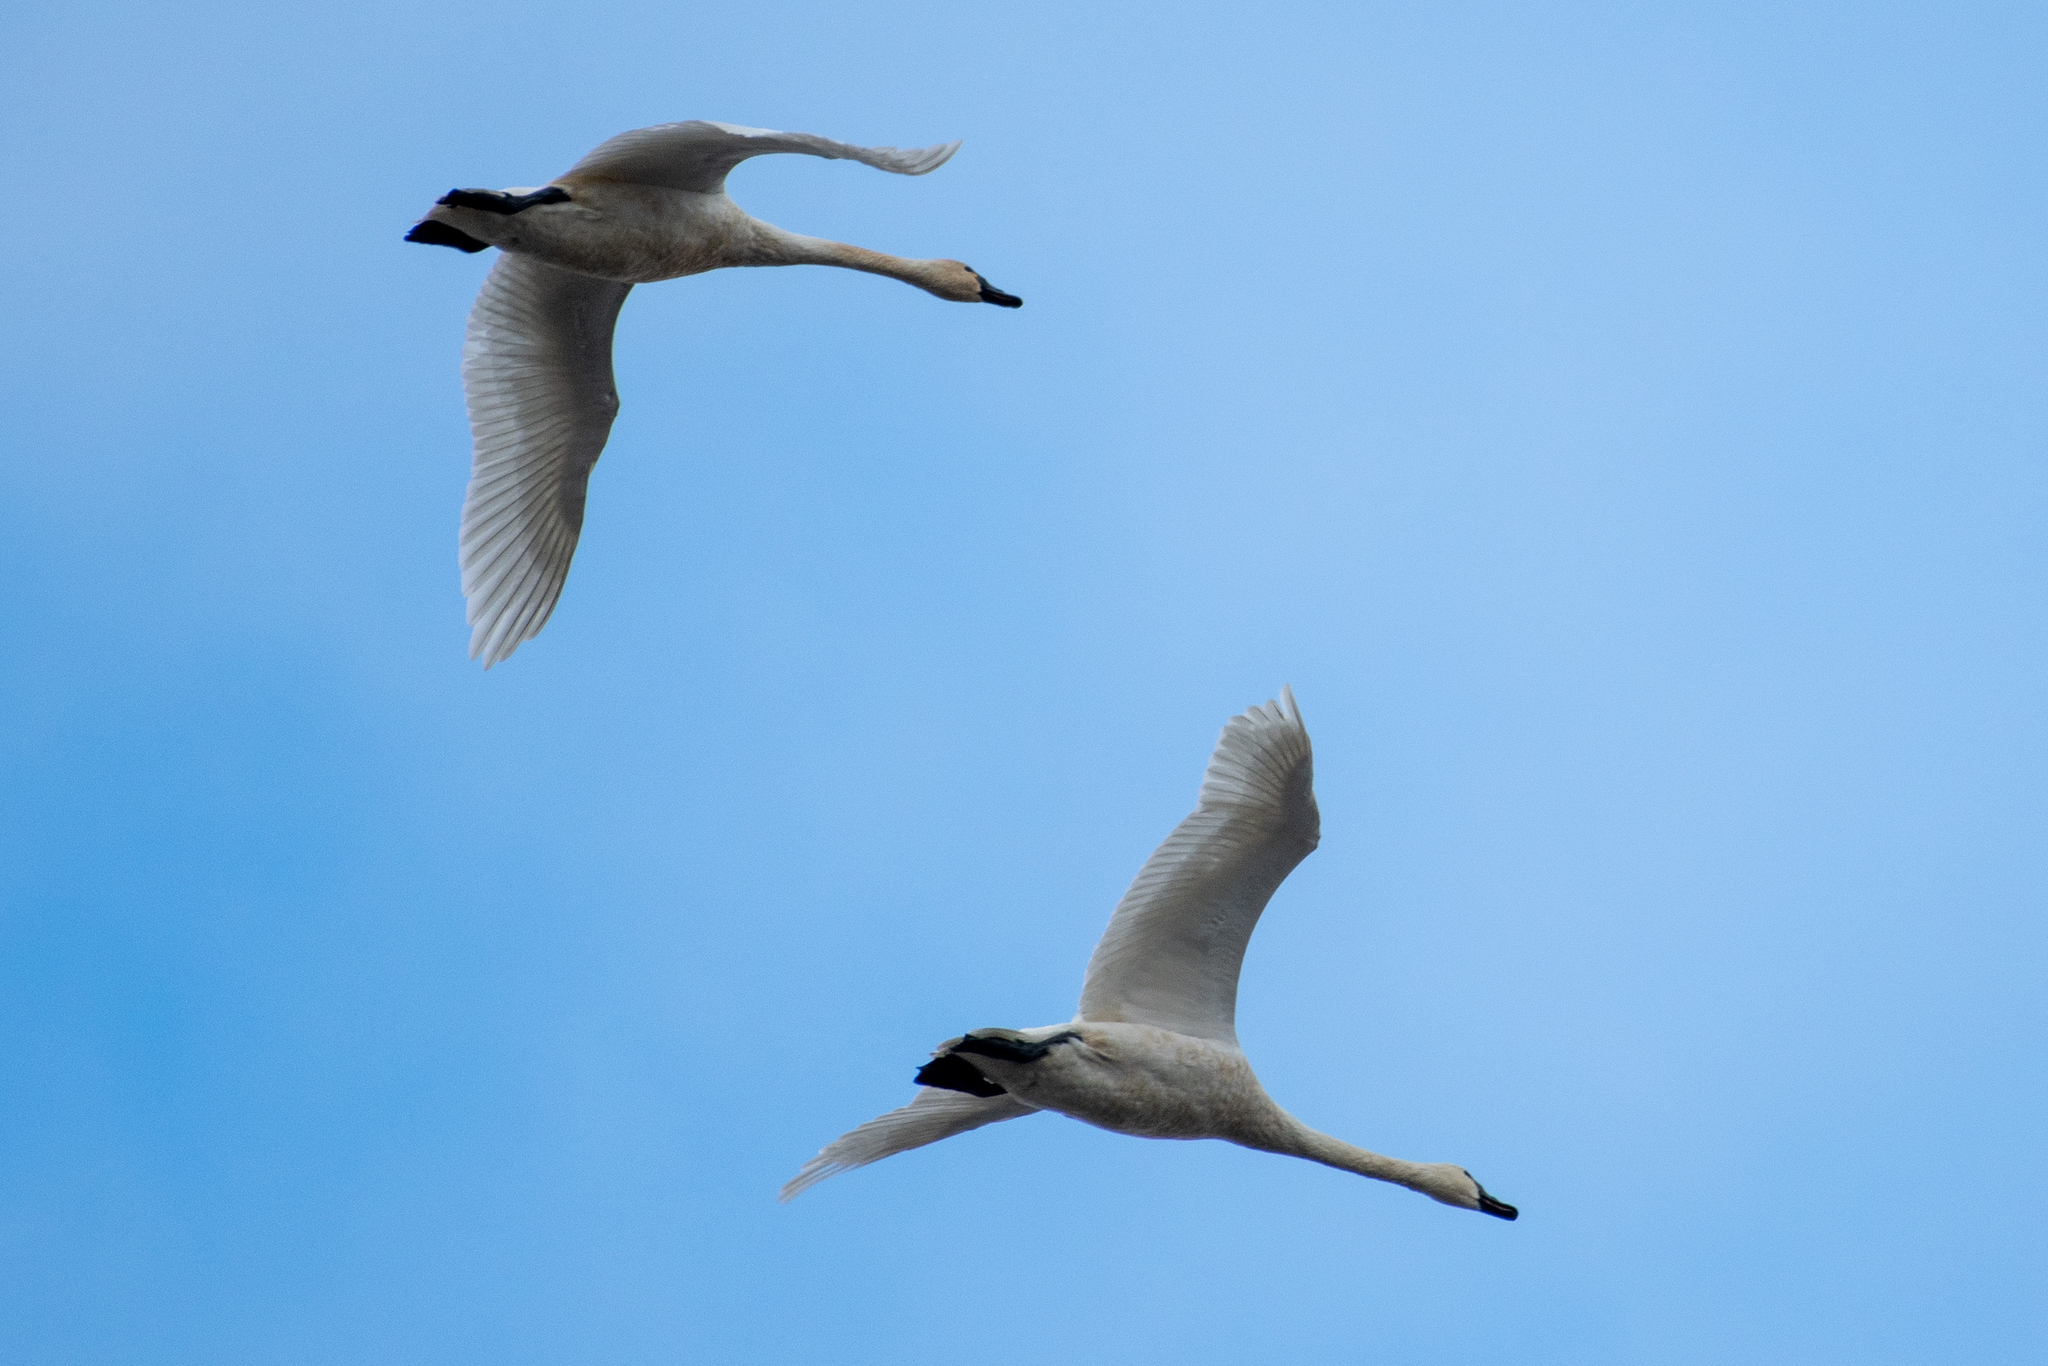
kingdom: Animalia
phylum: Chordata
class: Aves
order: Anseriformes
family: Anatidae
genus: Cygnus
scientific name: Cygnus columbianus
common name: Tundra swan
